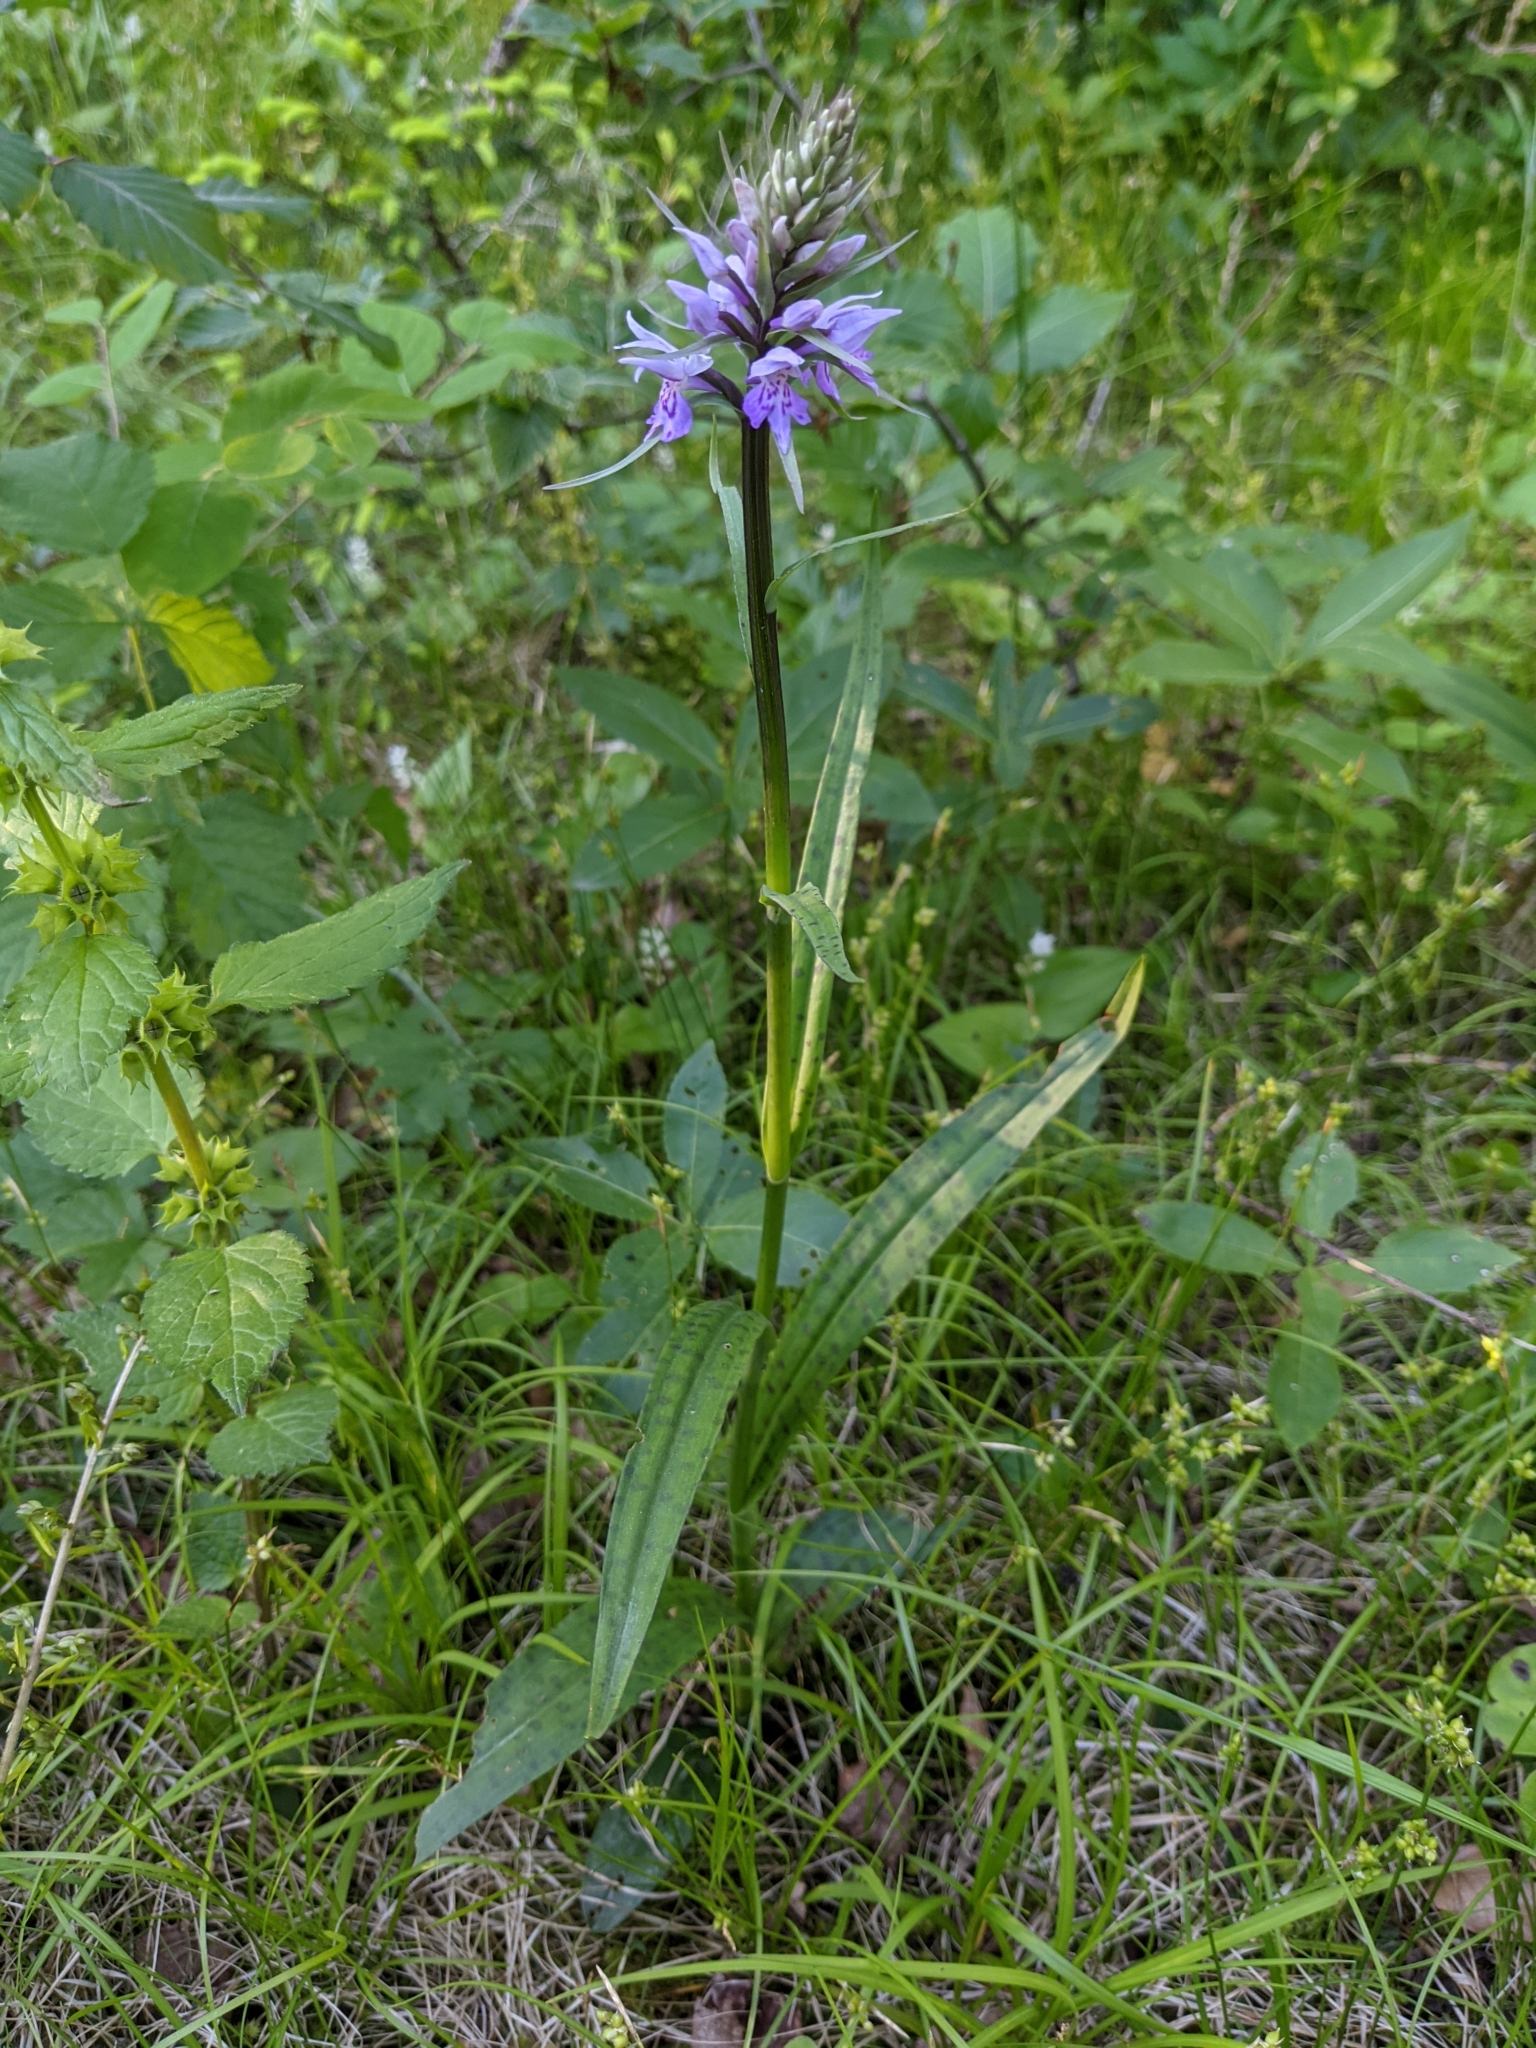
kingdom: Plantae
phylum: Tracheophyta
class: Liliopsida
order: Asparagales
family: Orchidaceae
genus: Dactylorhiza
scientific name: Dactylorhiza maculata
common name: Heath spotted-orchid
